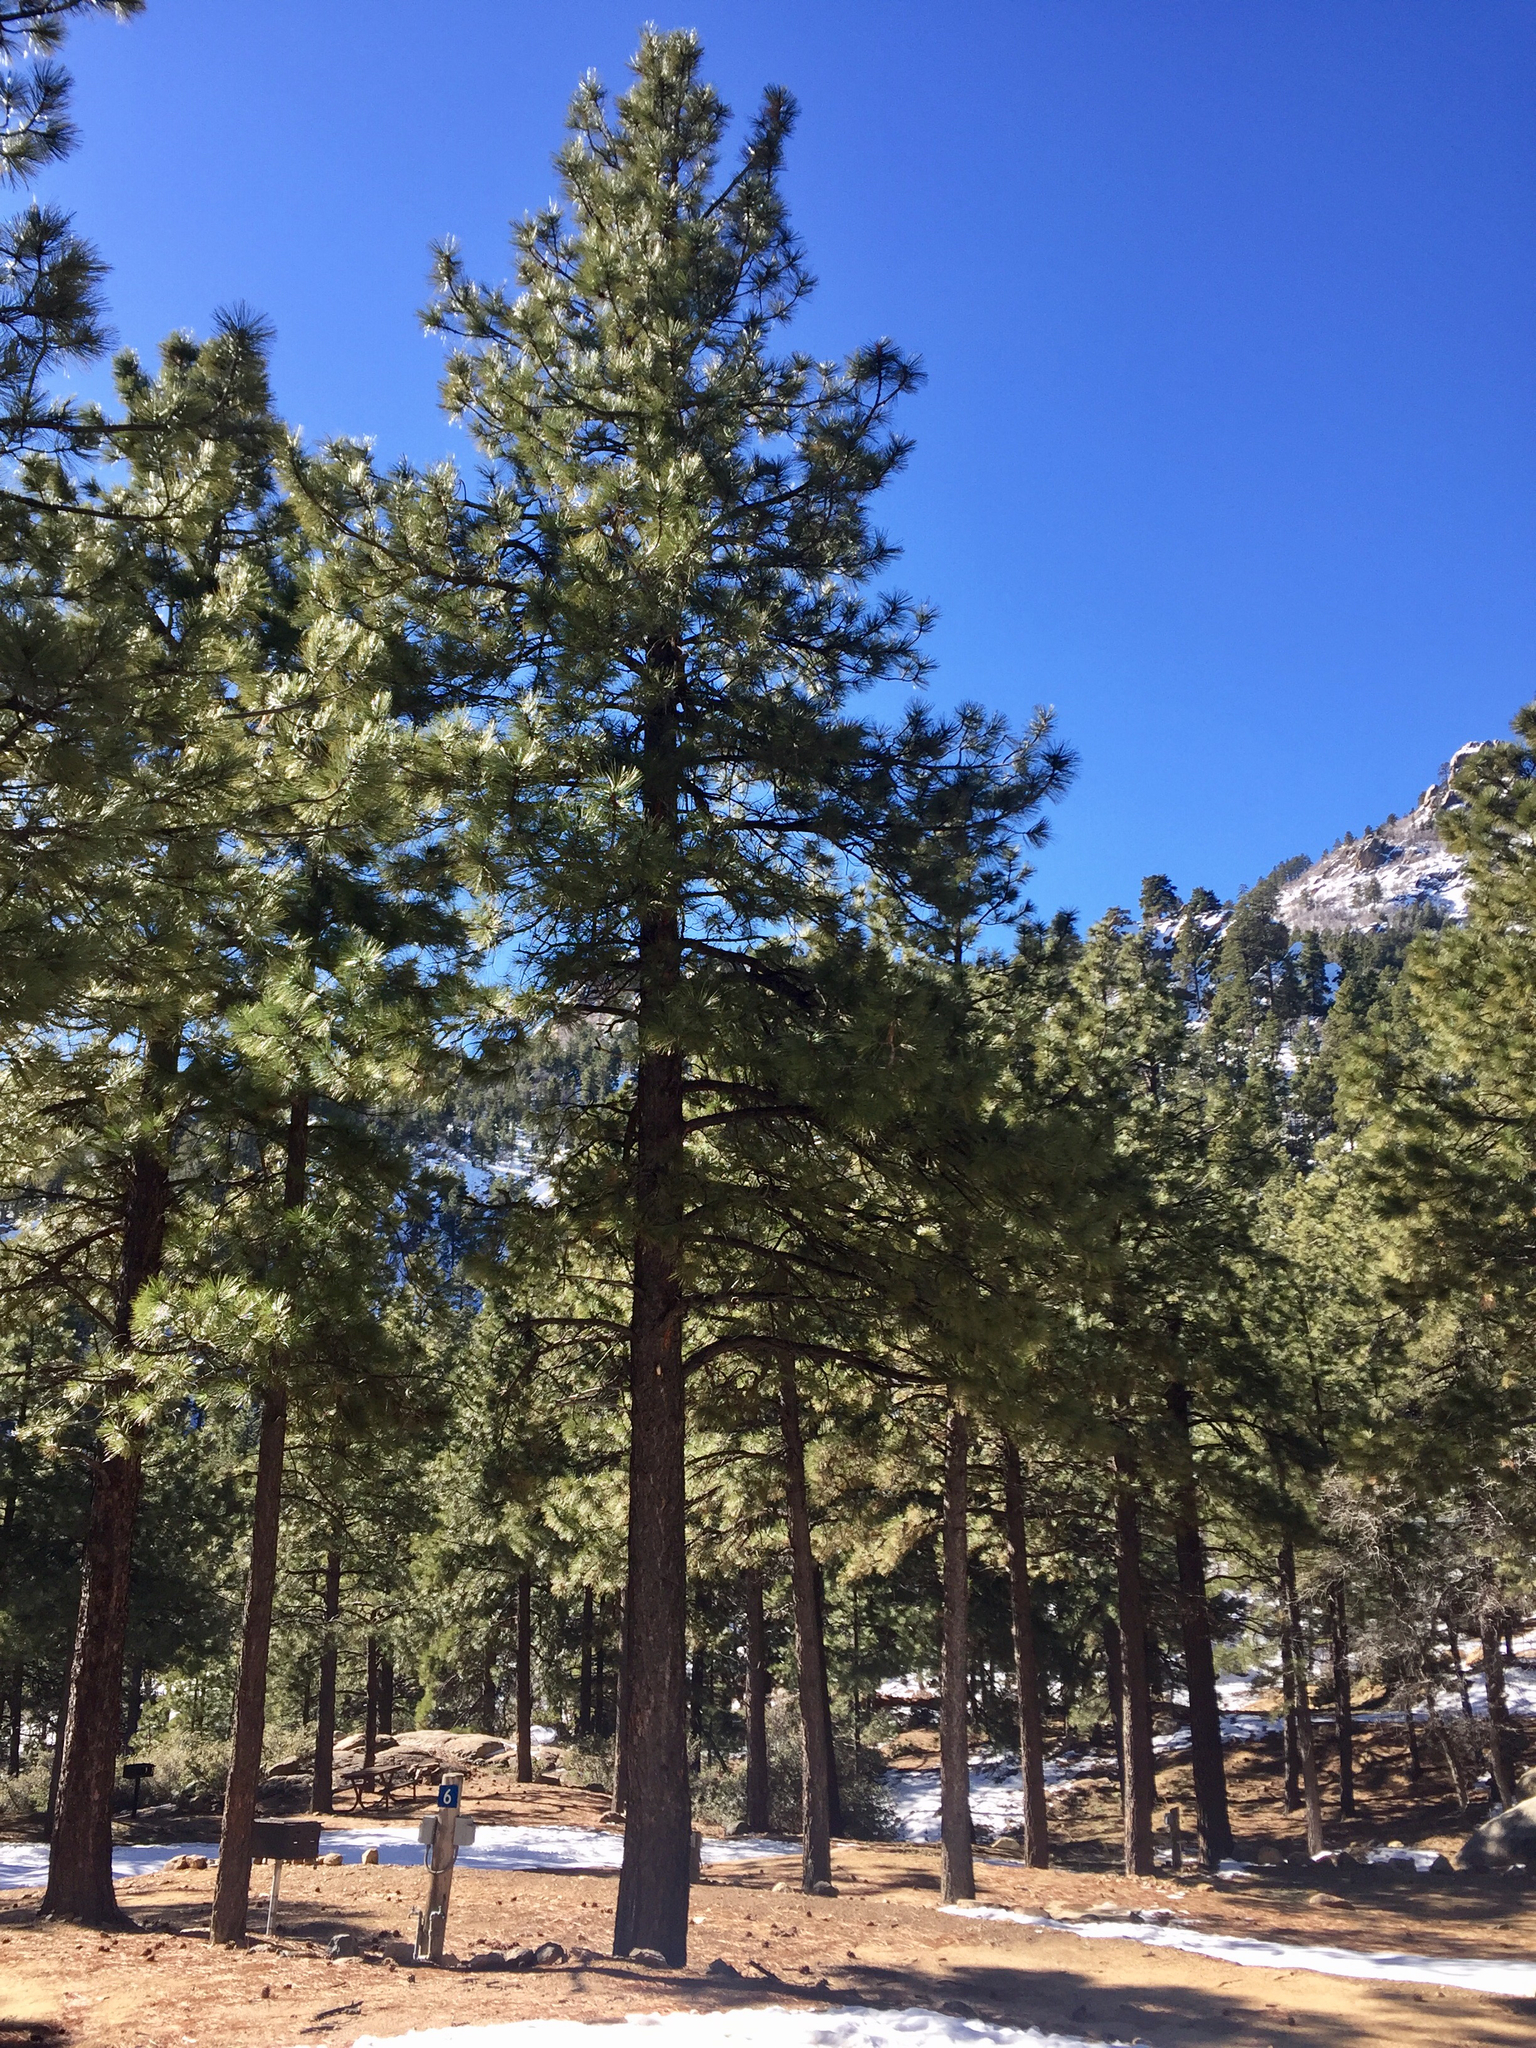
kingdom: Plantae
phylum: Tracheophyta
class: Pinopsida
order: Pinales
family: Pinaceae
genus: Pinus
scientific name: Pinus ponderosa
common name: Western yellow-pine
